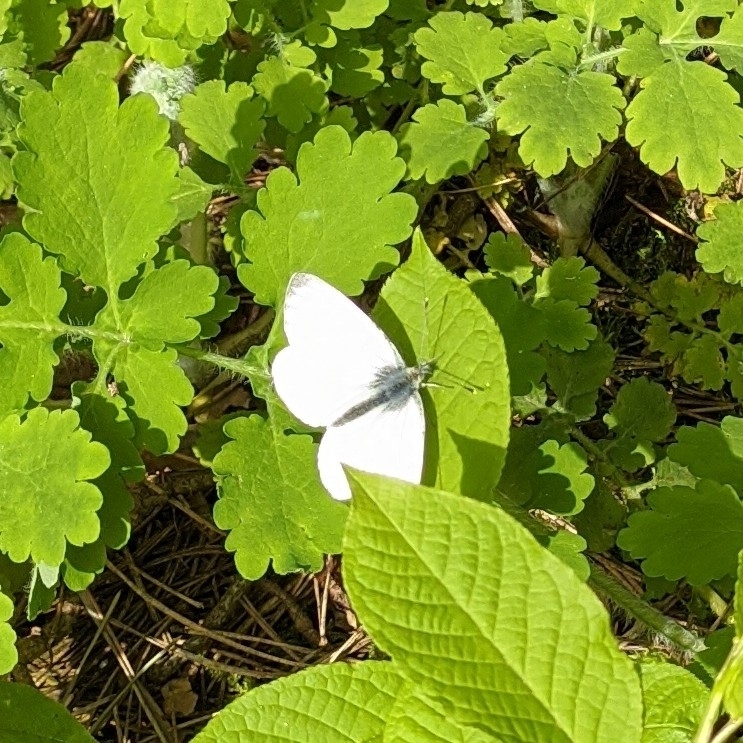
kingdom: Animalia
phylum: Arthropoda
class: Insecta
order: Lepidoptera
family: Pieridae
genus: Pieris
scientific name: Pieris napi
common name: Green-veined white
